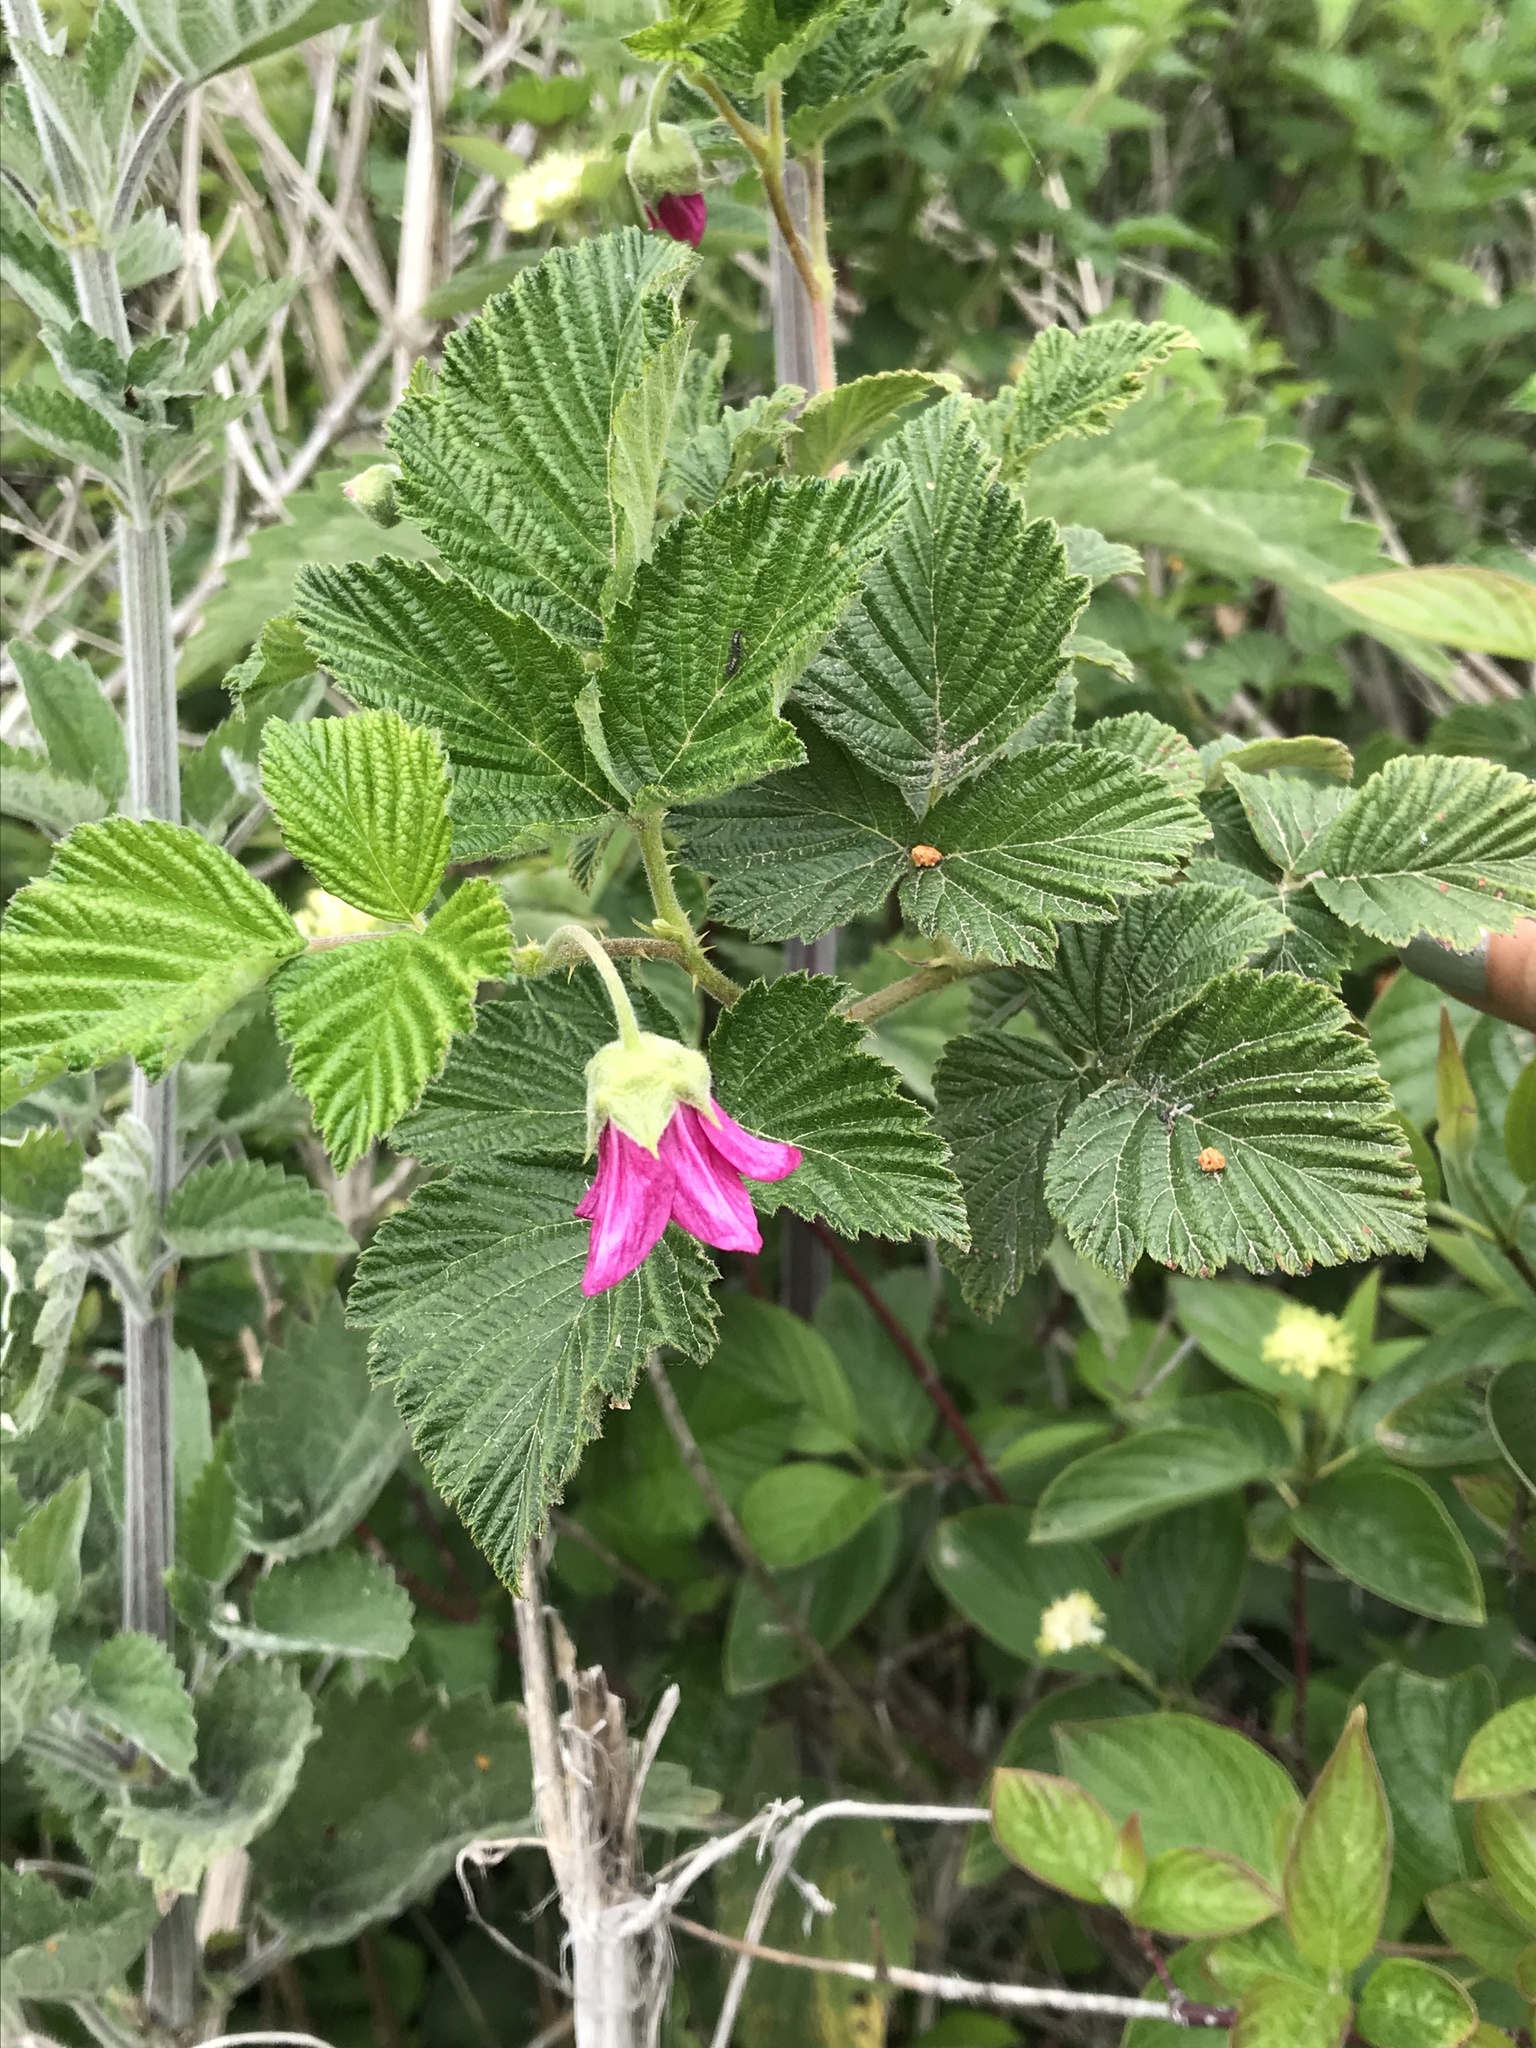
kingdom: Plantae
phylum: Tracheophyta
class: Magnoliopsida
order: Rosales
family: Rosaceae
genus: Rubus
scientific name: Rubus spectabilis
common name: Salmonberry
